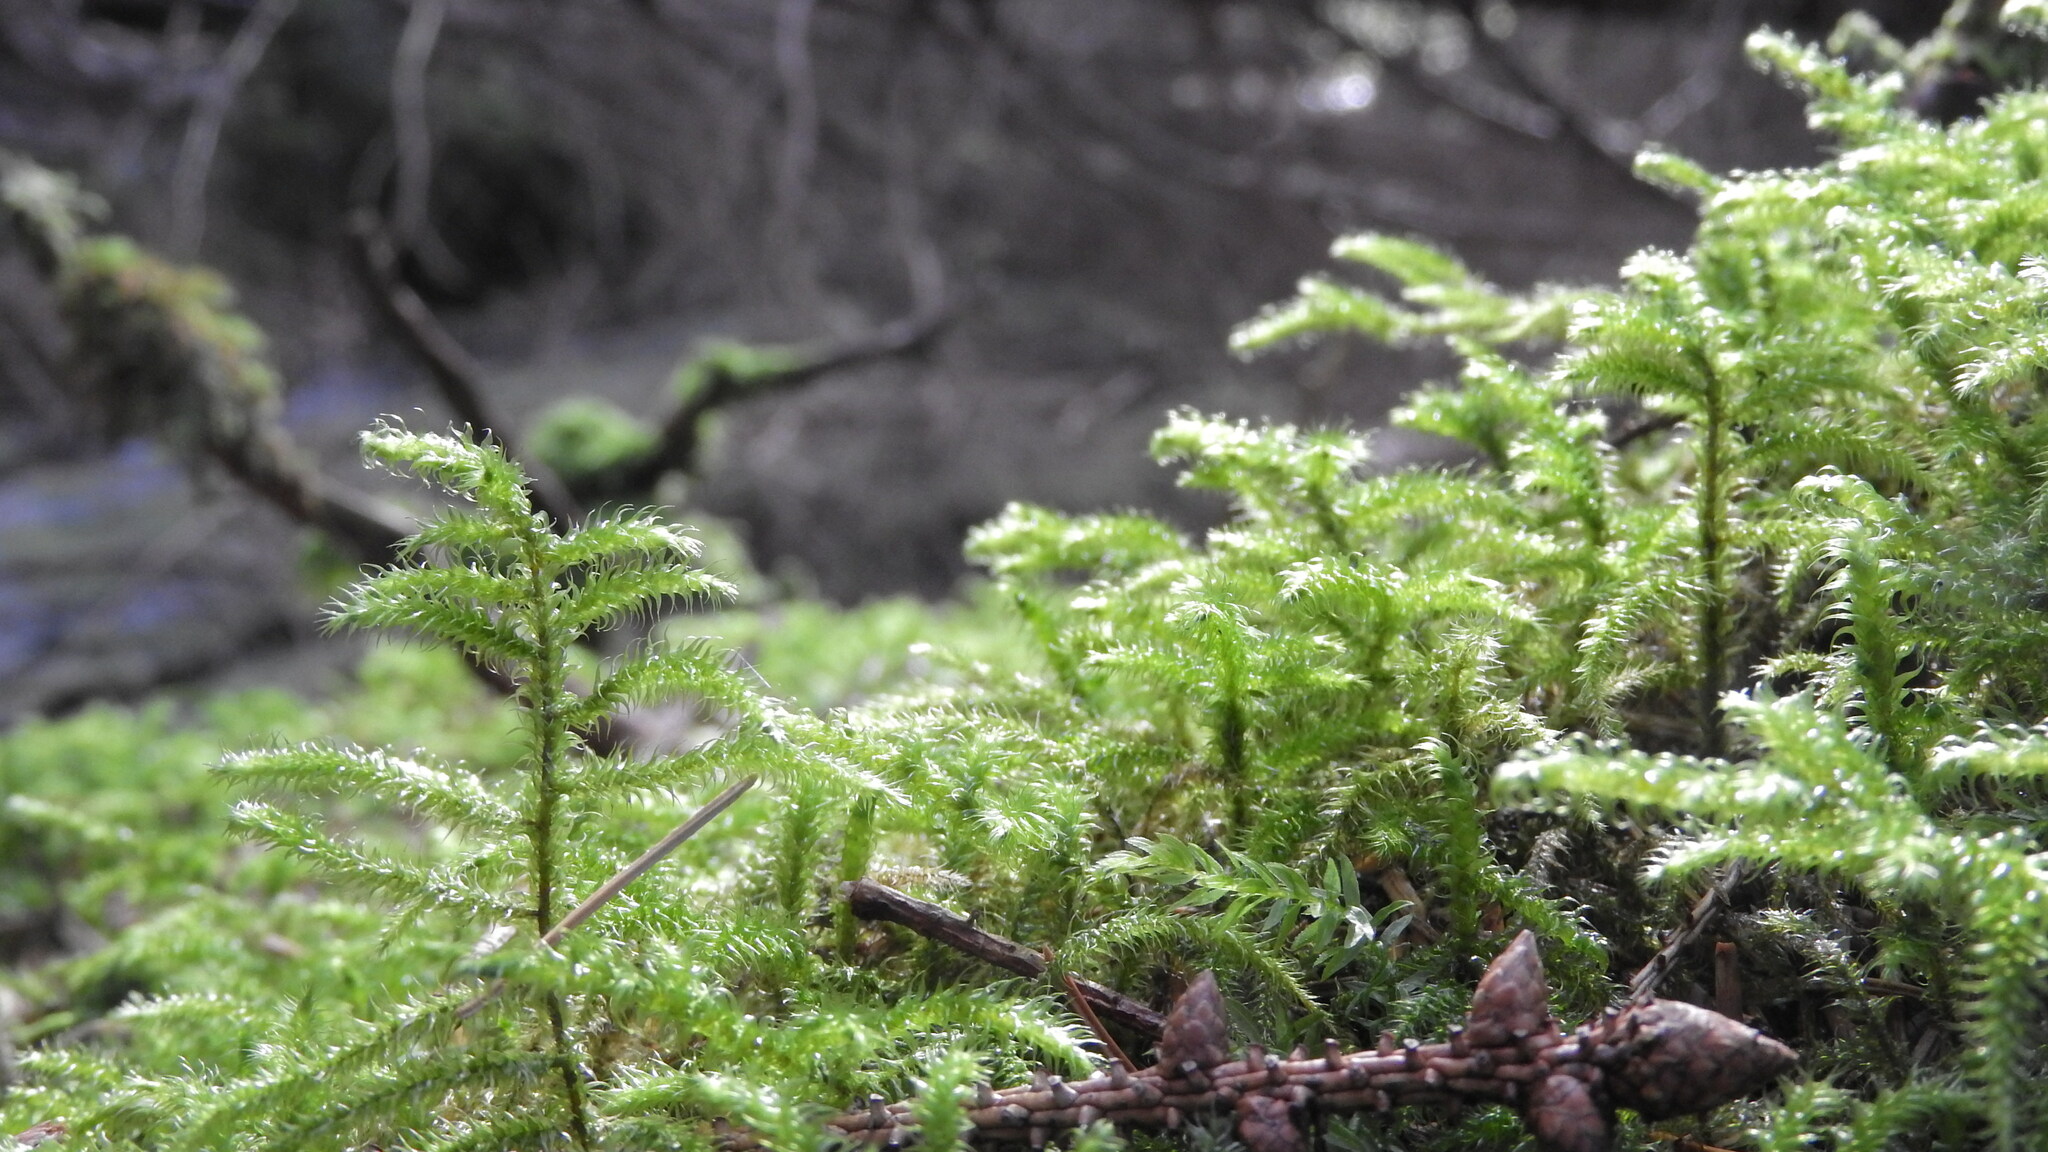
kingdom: Plantae
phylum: Bryophyta
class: Bryopsida
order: Hypnales
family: Hylocomiaceae
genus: Rhytidiadelphus
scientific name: Rhytidiadelphus loreus
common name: Lanky moss
